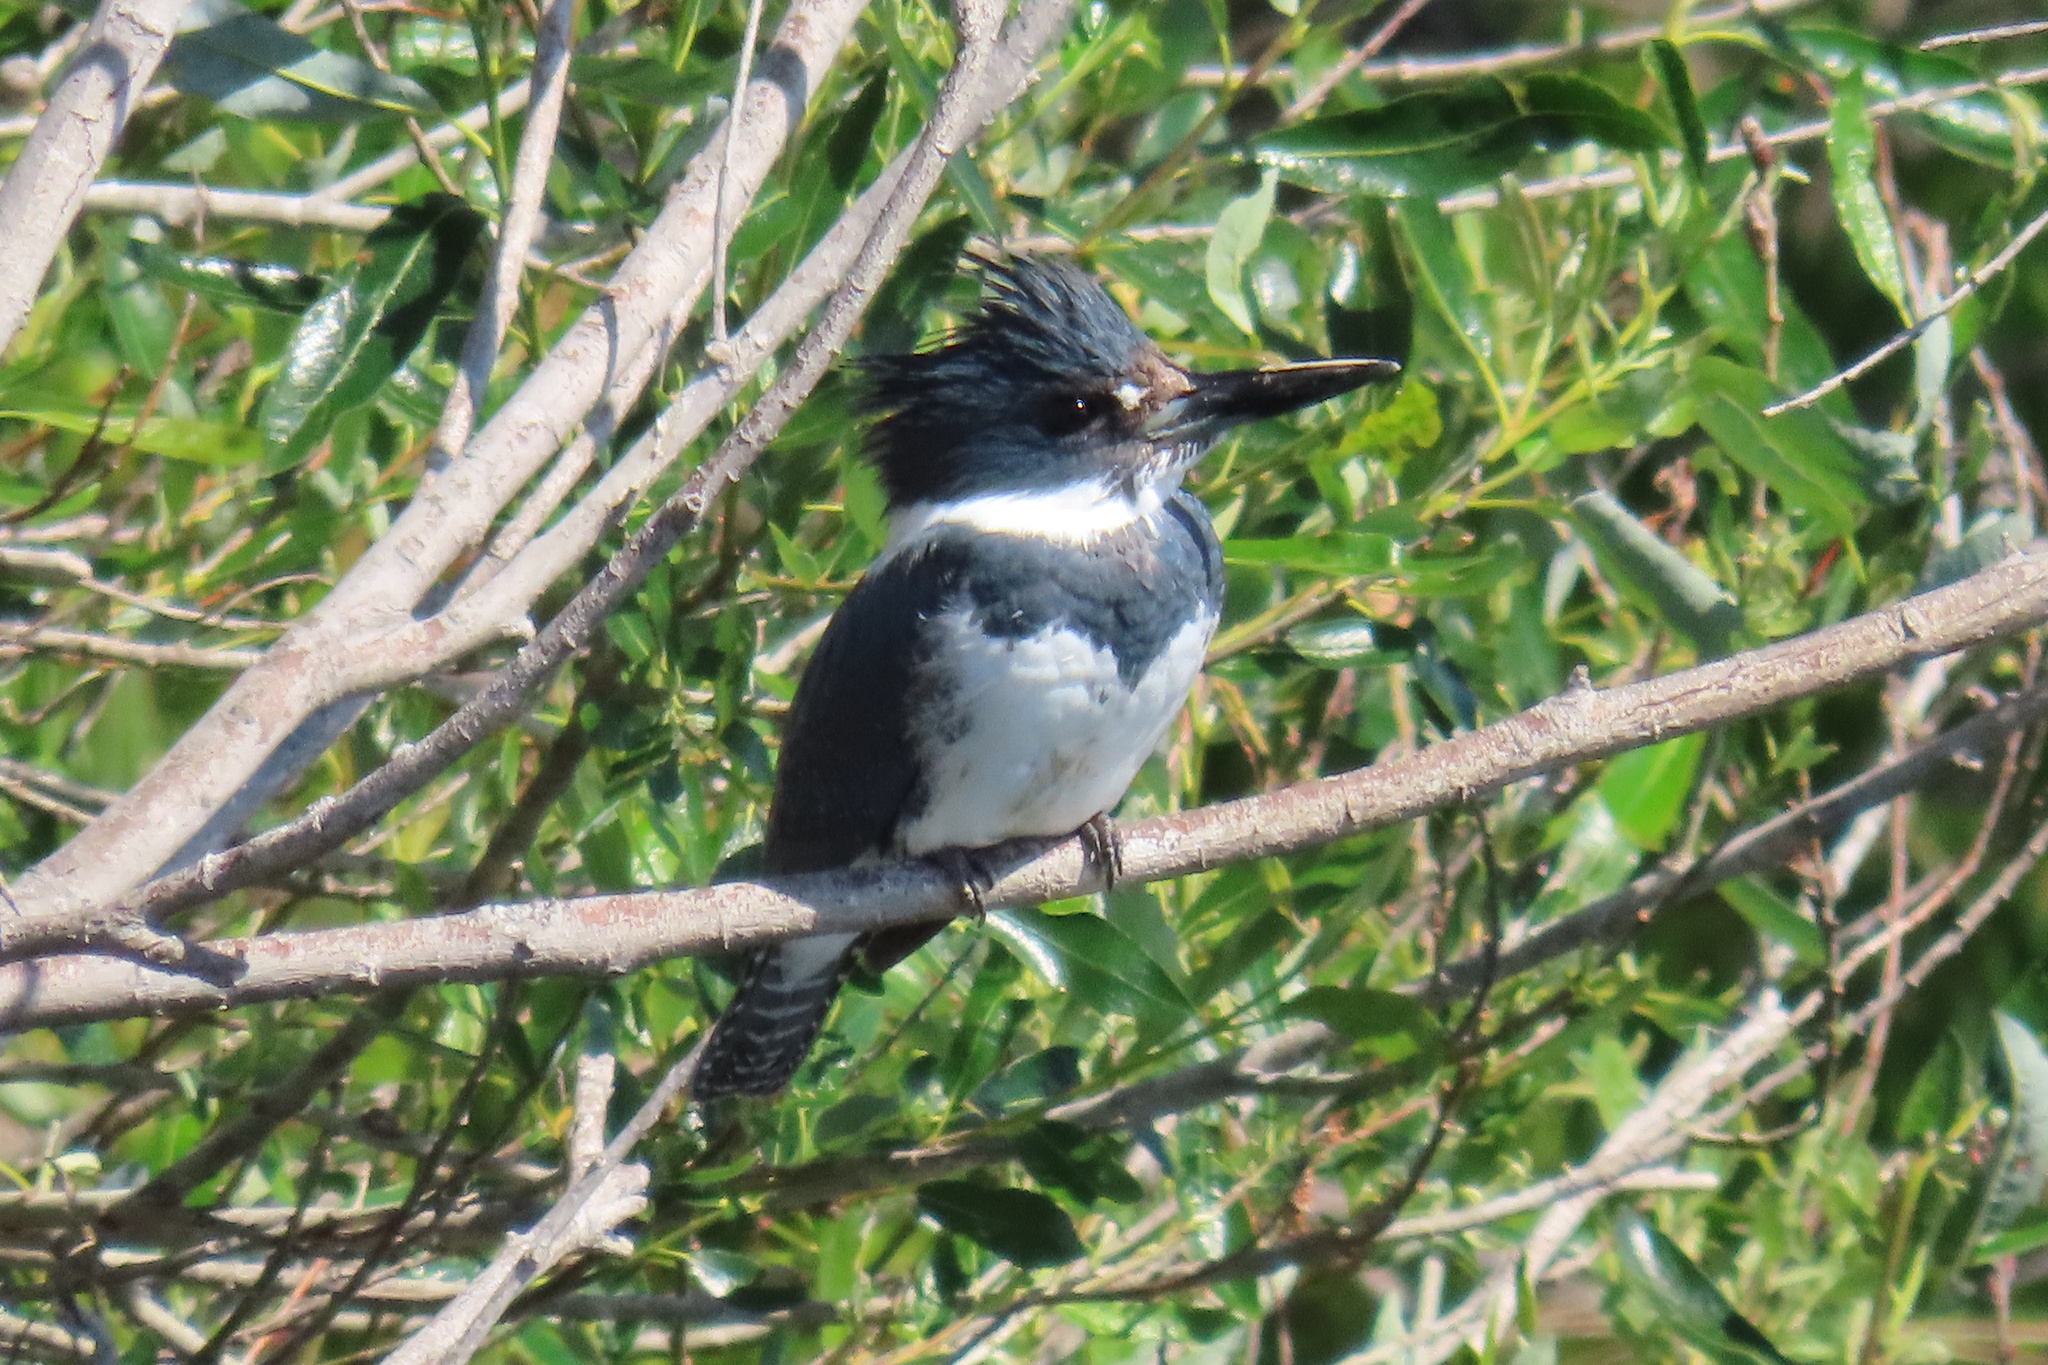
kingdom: Animalia
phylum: Chordata
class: Aves
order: Coraciiformes
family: Alcedinidae
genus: Megaceryle
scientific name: Megaceryle alcyon
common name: Belted kingfisher
